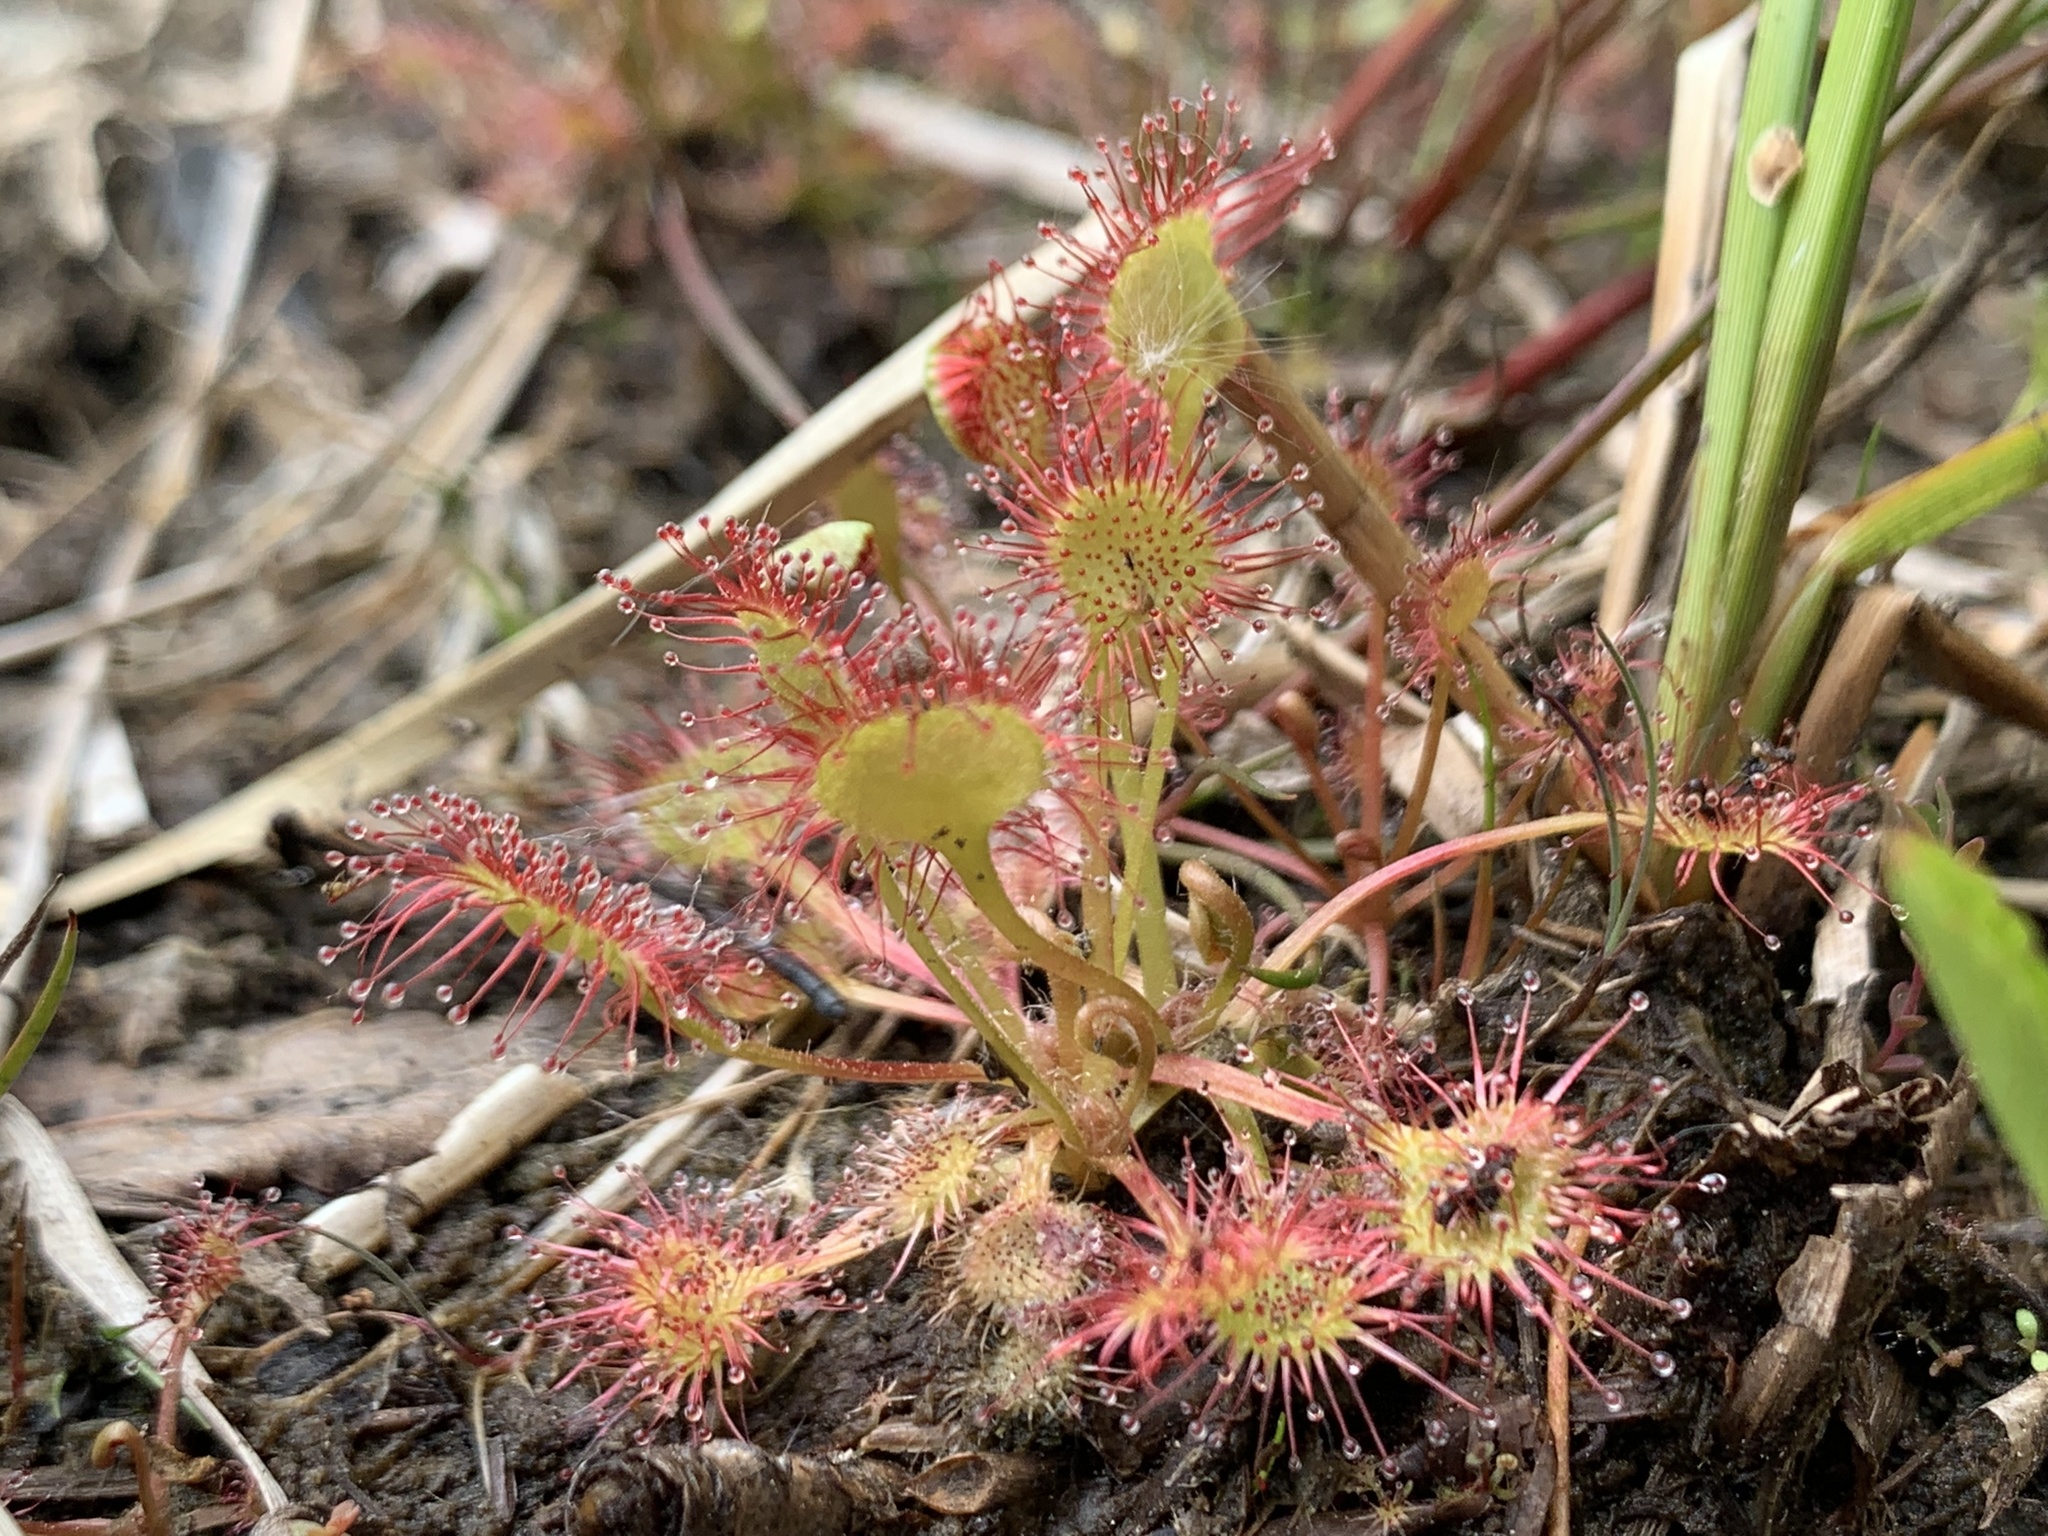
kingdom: Plantae
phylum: Tracheophyta
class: Magnoliopsida
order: Caryophyllales
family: Droseraceae
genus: Drosera
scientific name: Drosera rotundifolia
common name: Round-leaved sundew
